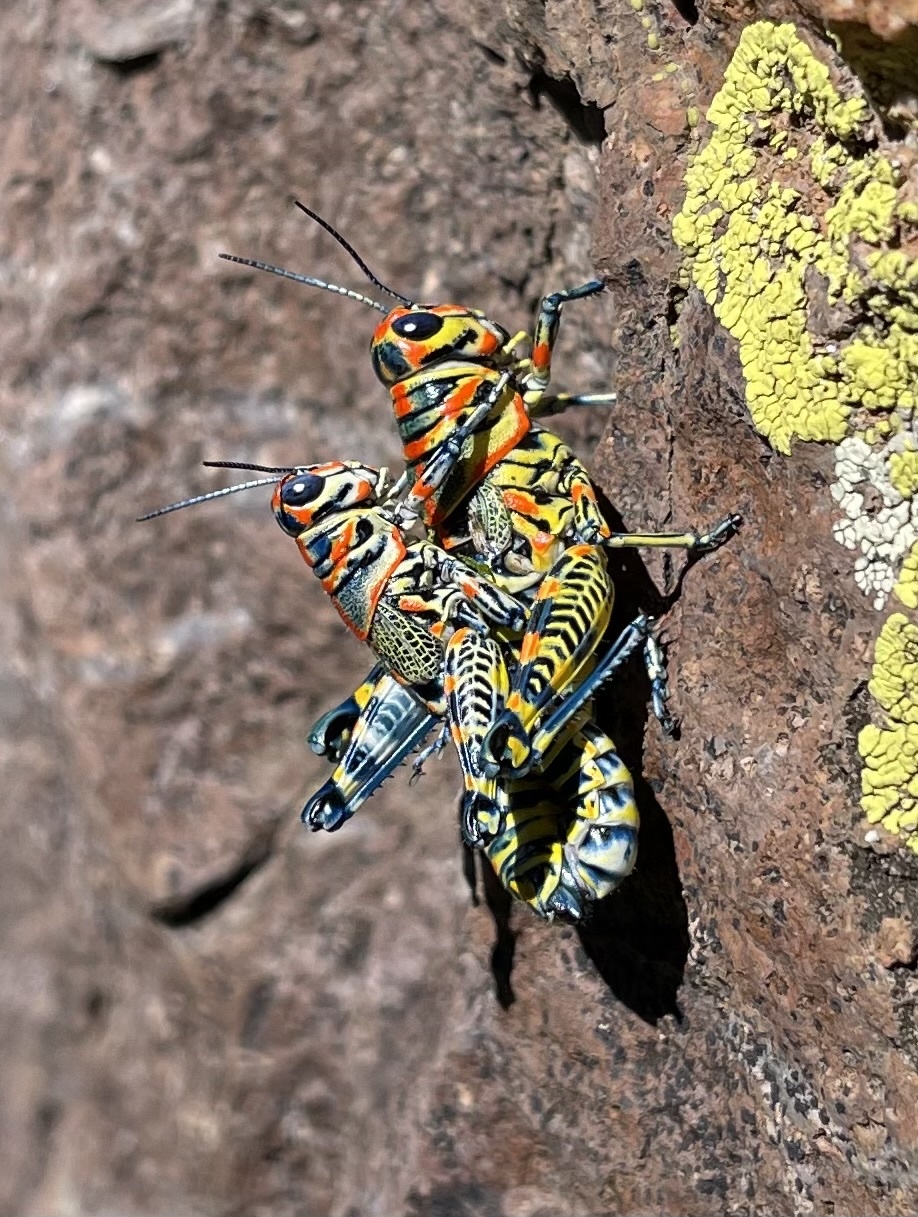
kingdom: Animalia
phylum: Arthropoda
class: Insecta
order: Orthoptera
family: Acrididae
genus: Dactylotum
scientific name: Dactylotum bicolor
